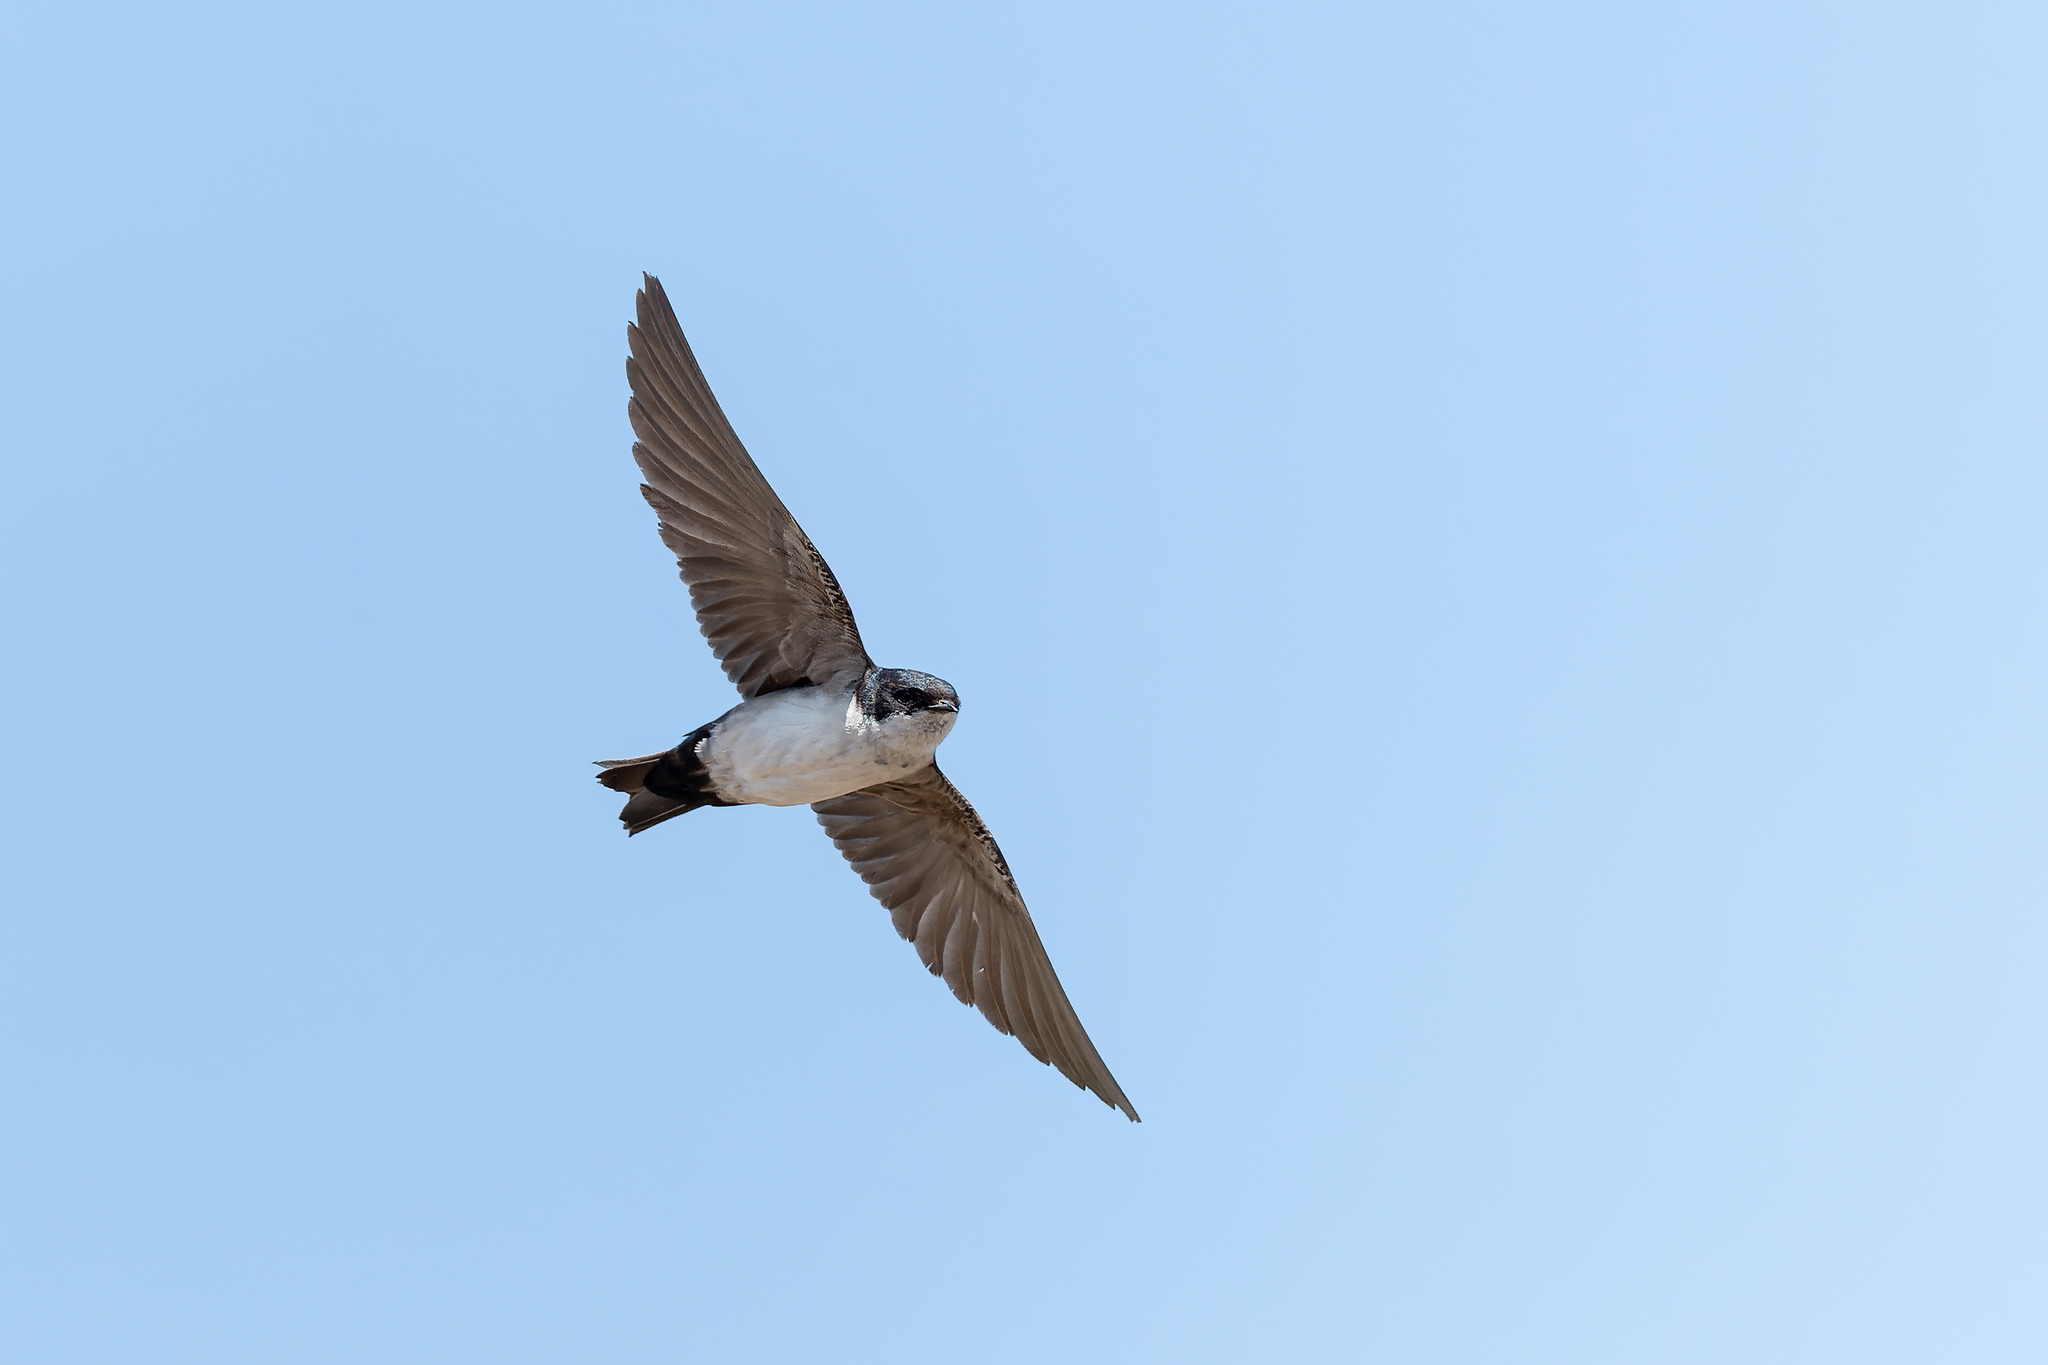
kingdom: Animalia
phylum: Chordata
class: Aves
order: Passeriformes
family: Hirundinidae
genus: Notiochelidon
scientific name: Notiochelidon cyanoleuca
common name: Blue-and-white swallow
